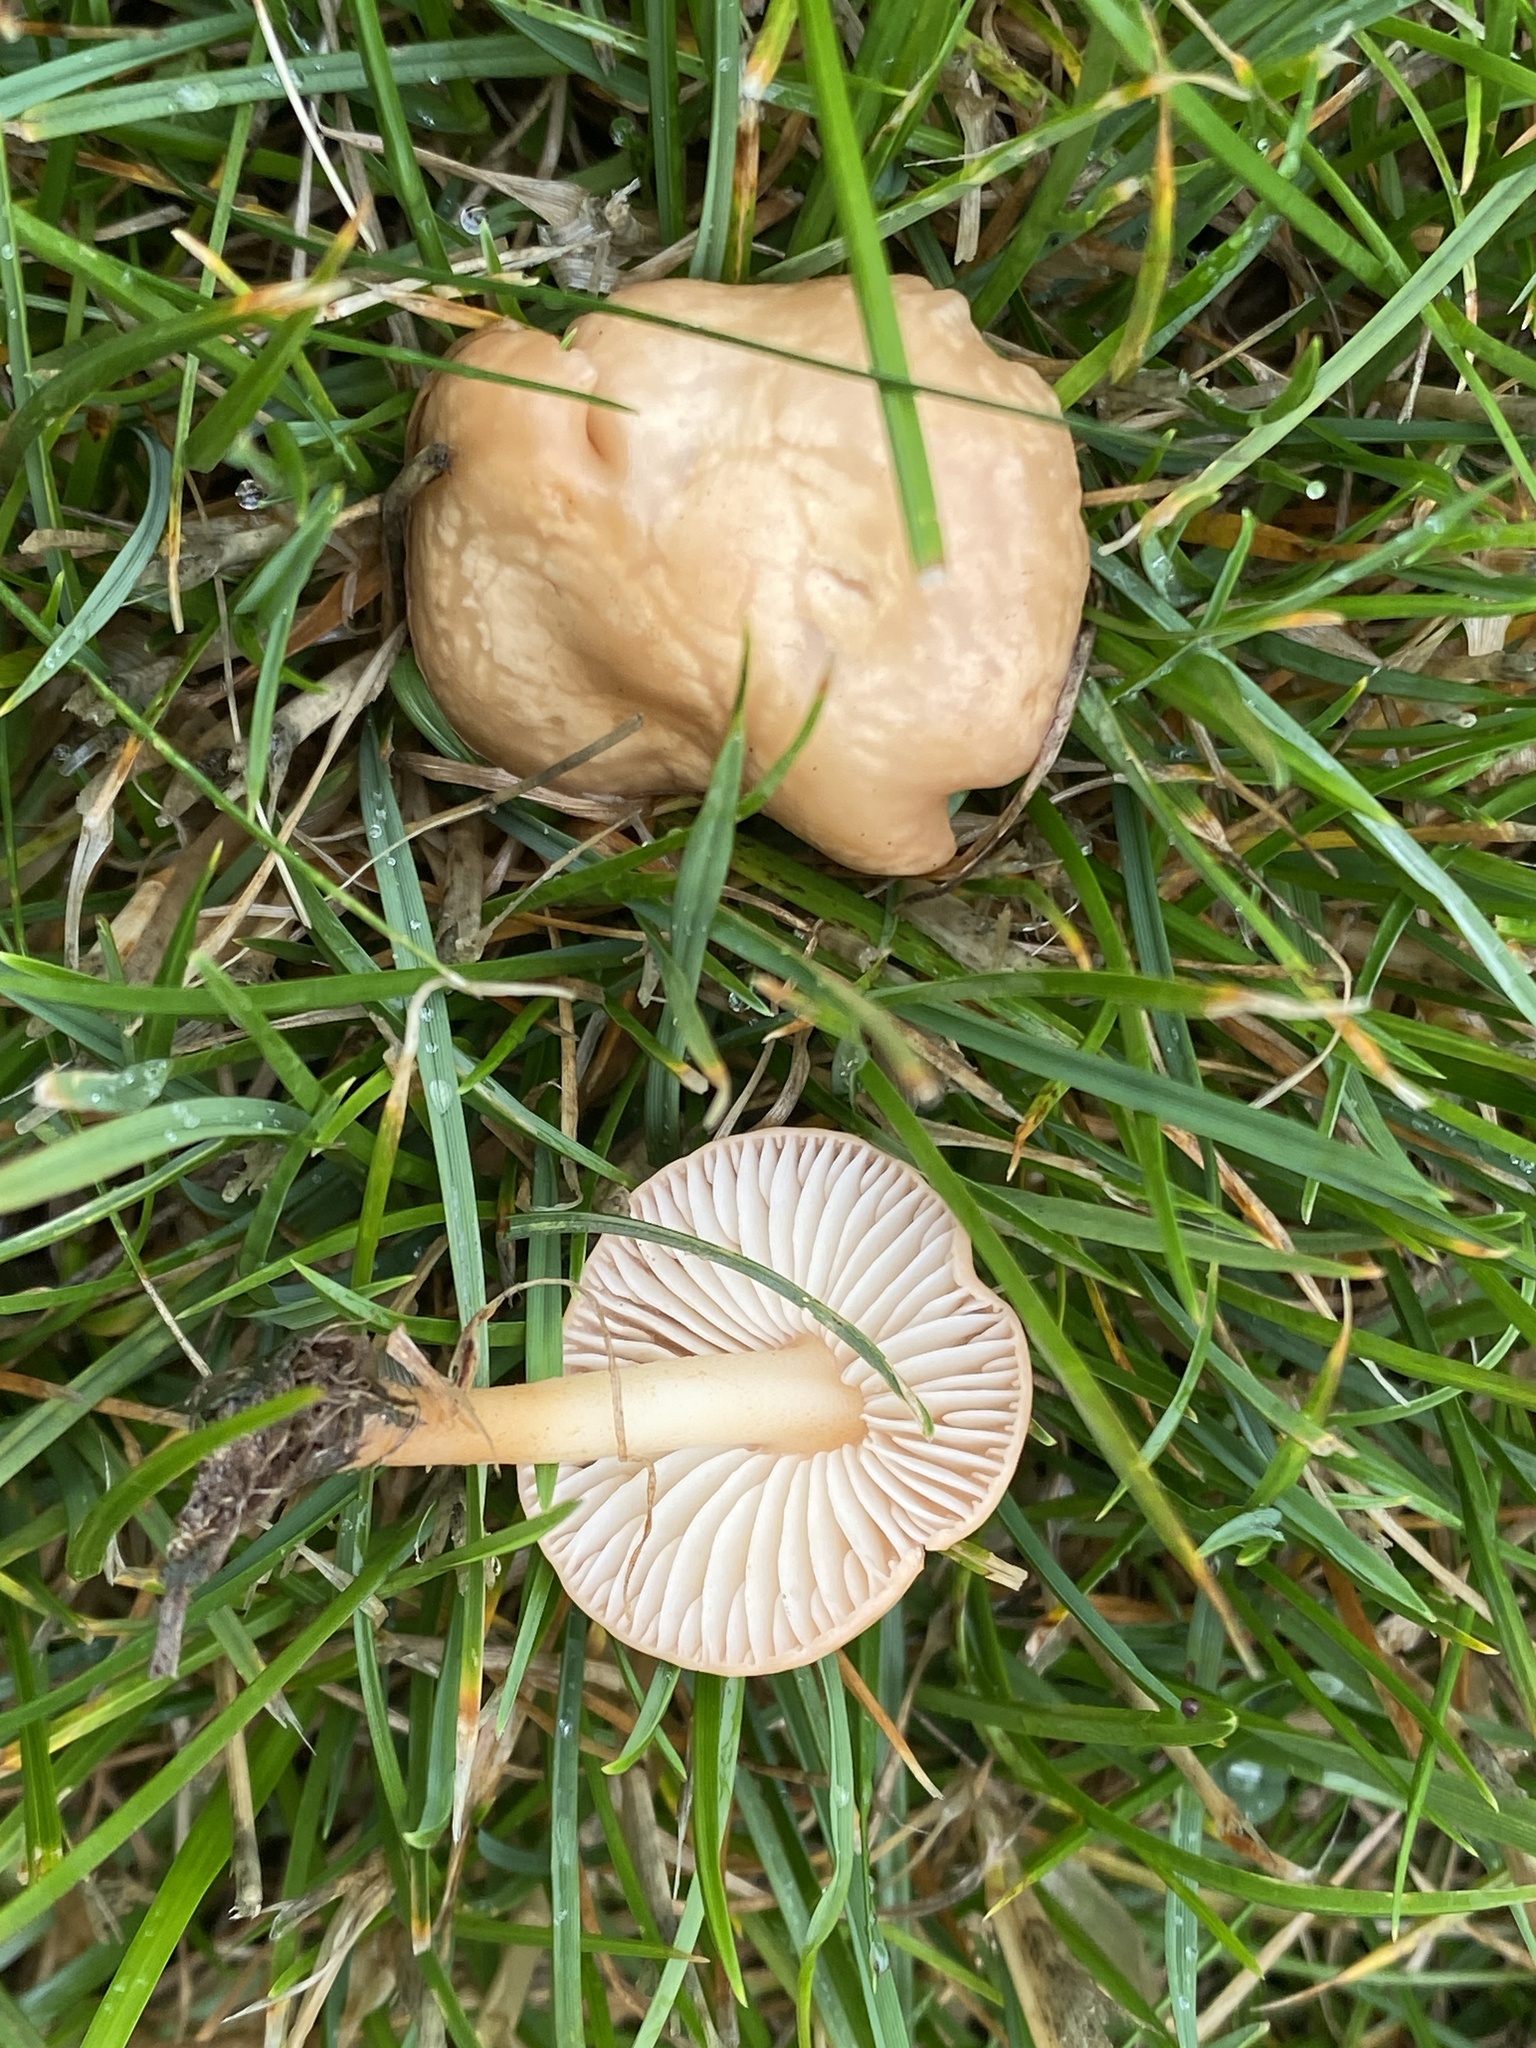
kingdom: Fungi
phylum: Basidiomycota
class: Agaricomycetes
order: Agaricales
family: Marasmiaceae
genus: Marasmius
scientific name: Marasmius oreades
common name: Fairy ring champignon
